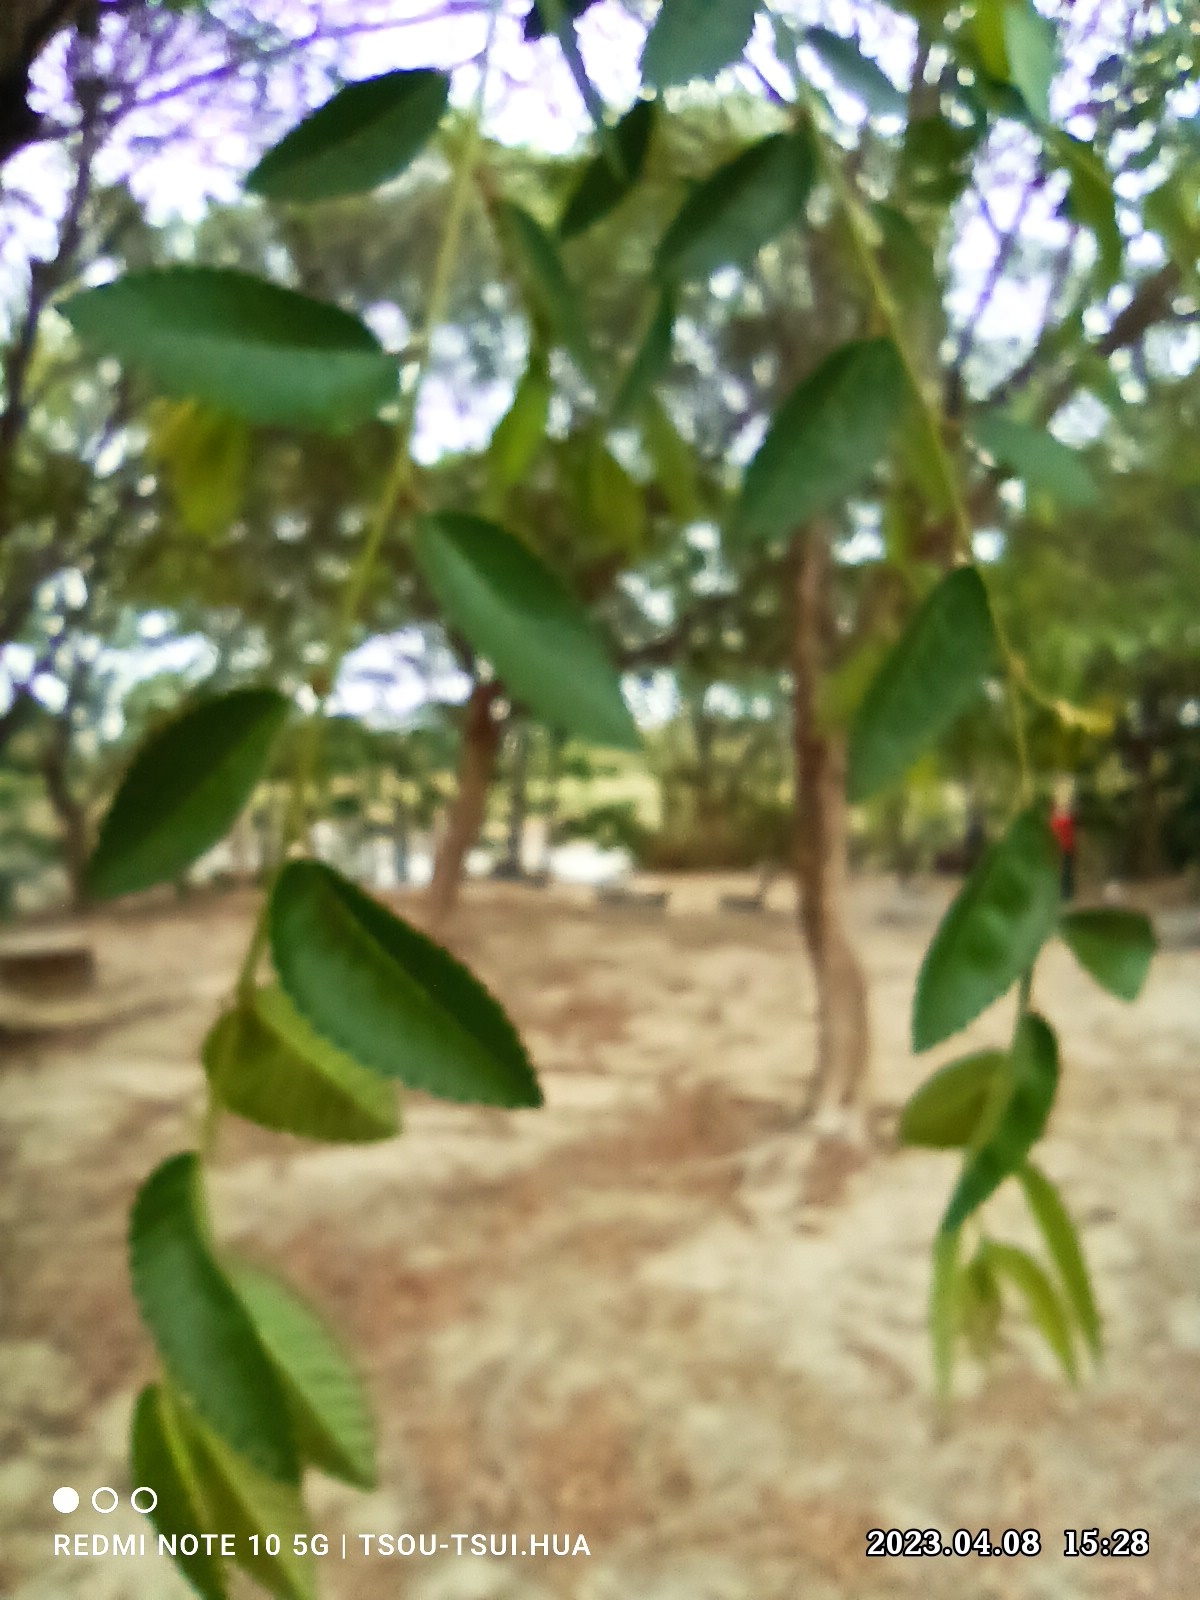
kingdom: Plantae
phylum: Tracheophyta
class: Magnoliopsida
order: Rosales
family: Ulmaceae
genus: Ulmus
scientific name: Ulmus parvifolia
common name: Chinese elm
